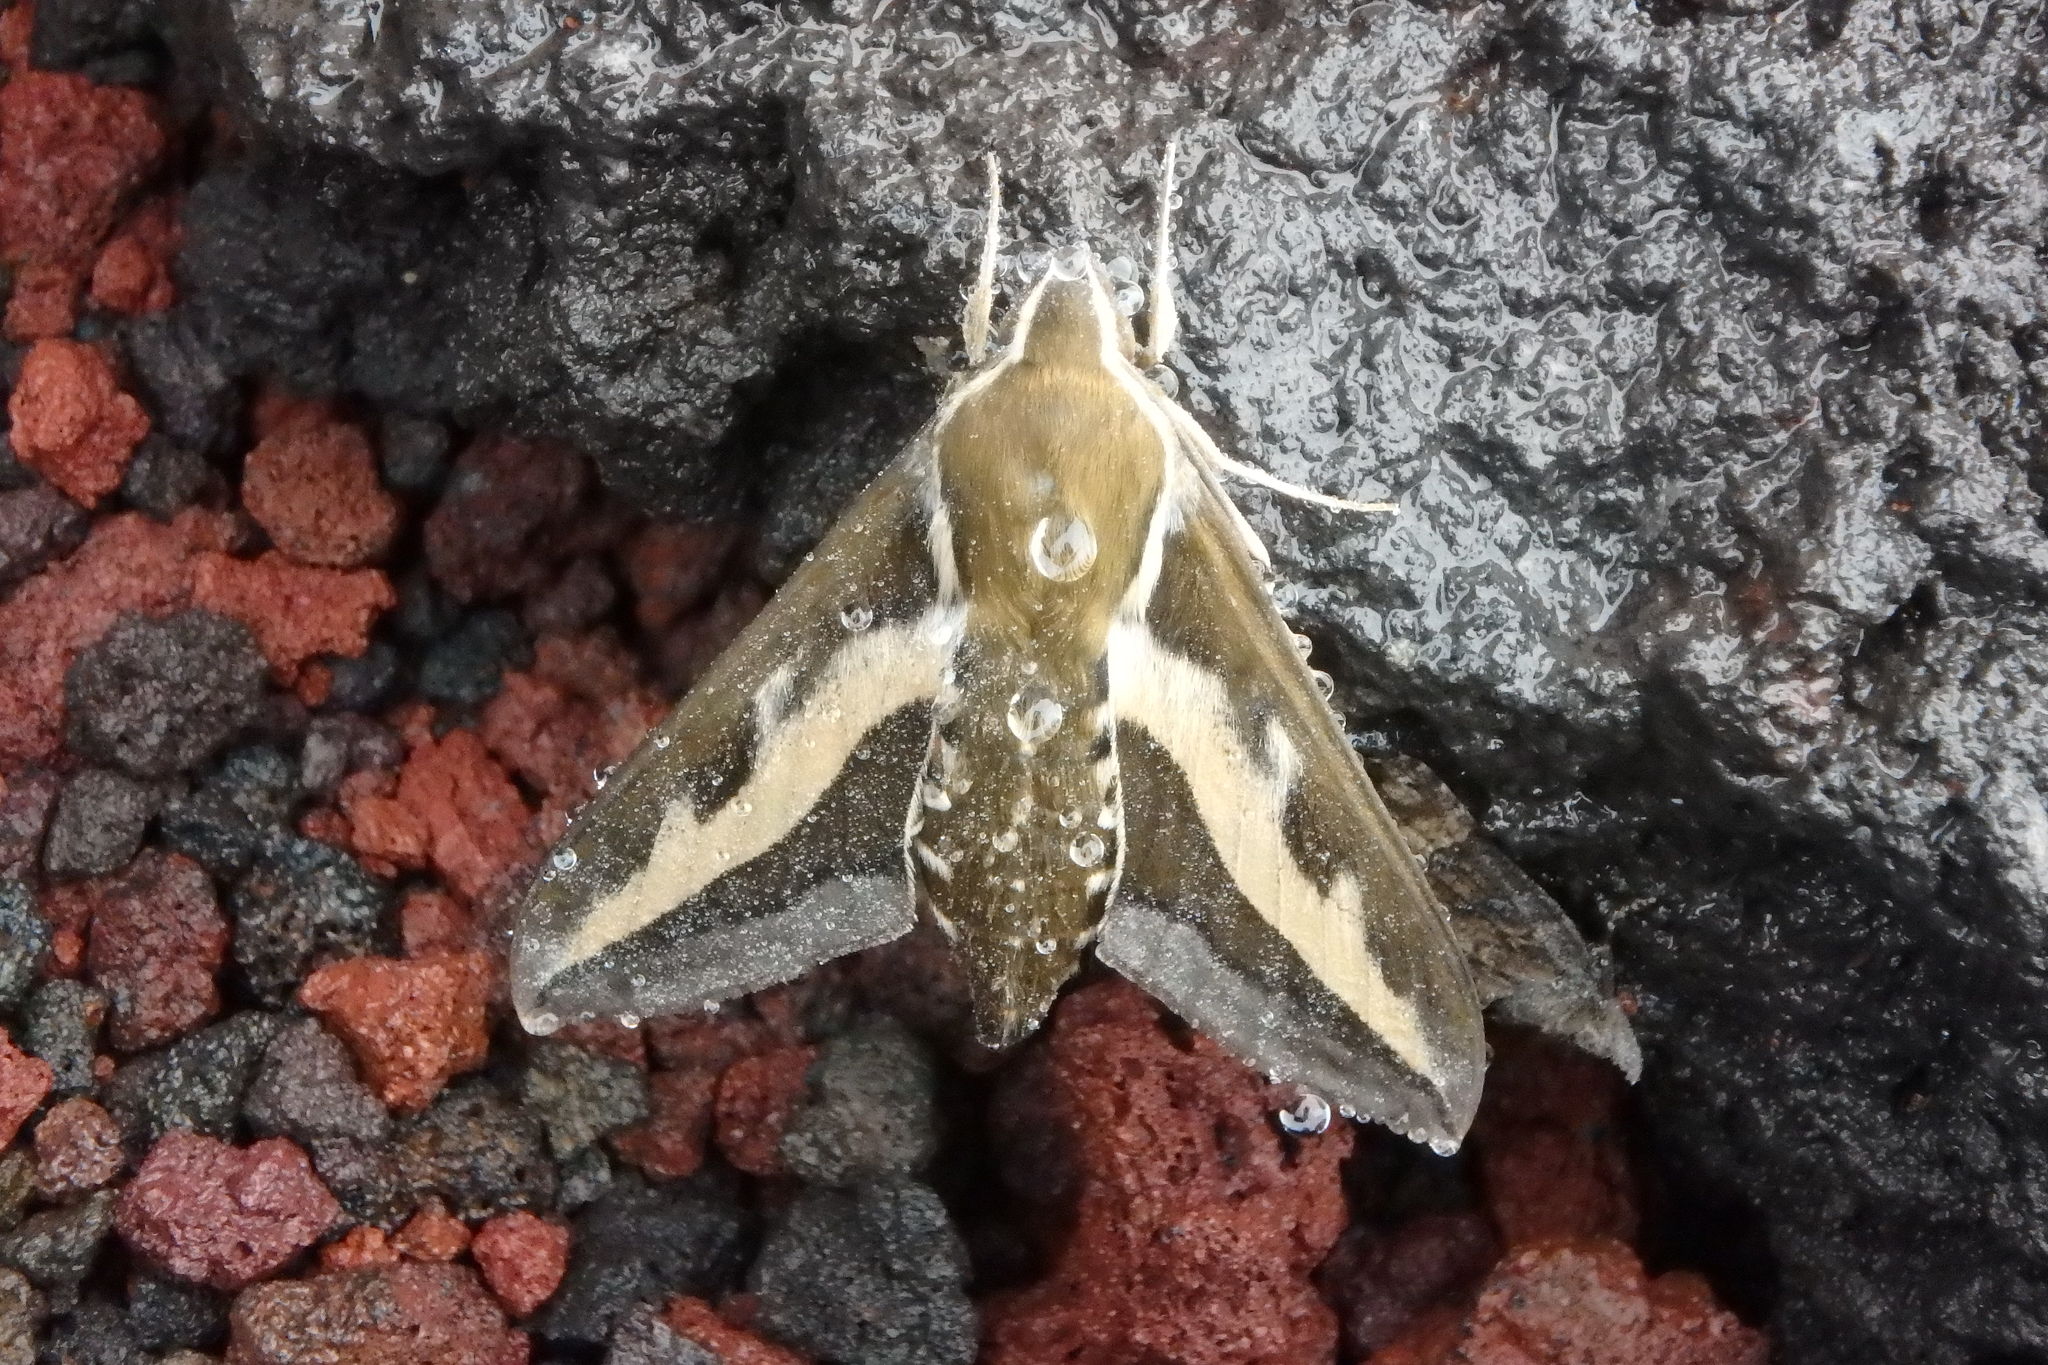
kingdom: Animalia
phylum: Arthropoda
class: Insecta
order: Lepidoptera
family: Sphingidae
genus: Hyles
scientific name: Hyles gallii
